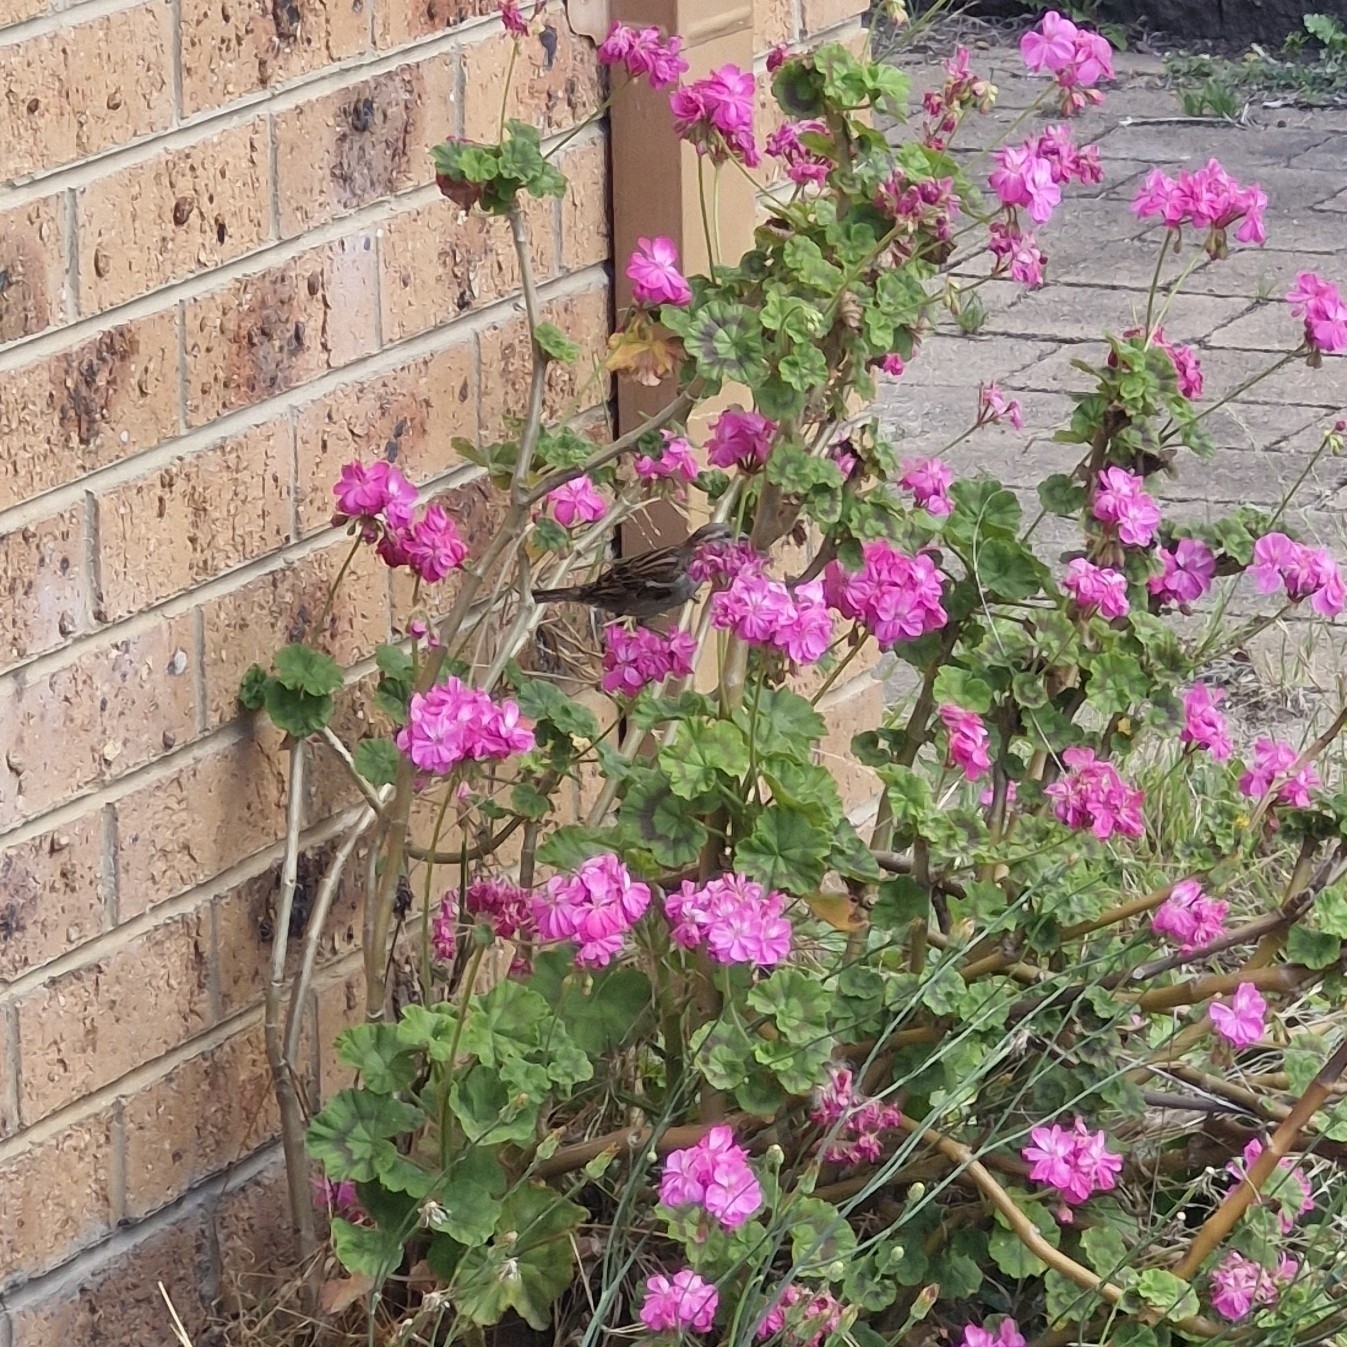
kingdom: Animalia
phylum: Chordata
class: Aves
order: Passeriformes
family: Passeridae
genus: Passer
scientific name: Passer domesticus
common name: House sparrow
